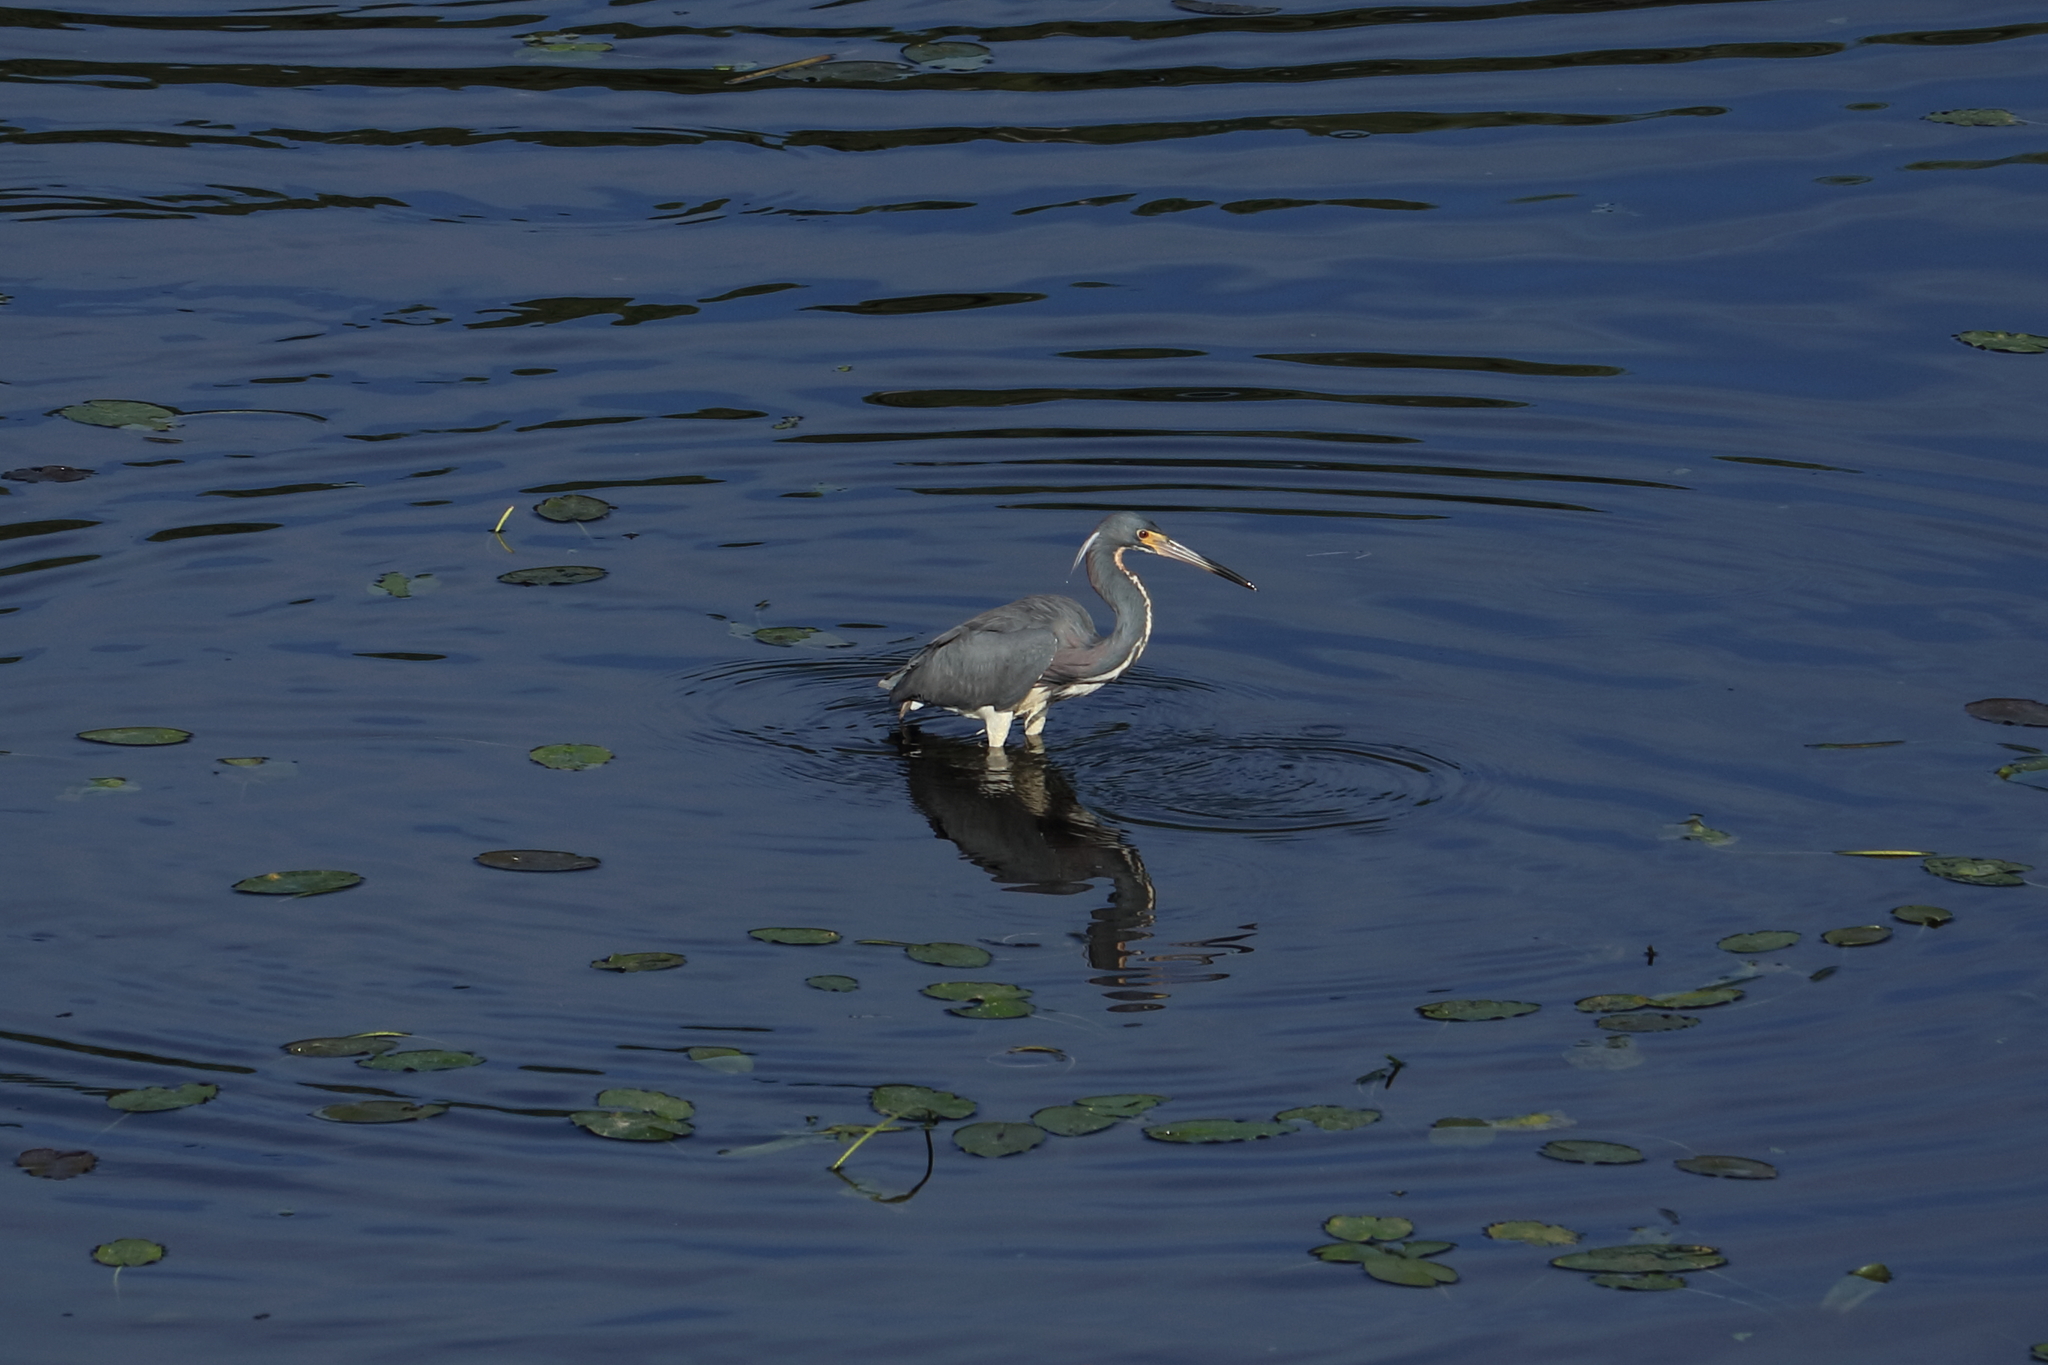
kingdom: Animalia
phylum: Chordata
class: Aves
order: Pelecaniformes
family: Ardeidae
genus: Egretta
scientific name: Egretta tricolor
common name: Tricolored heron
